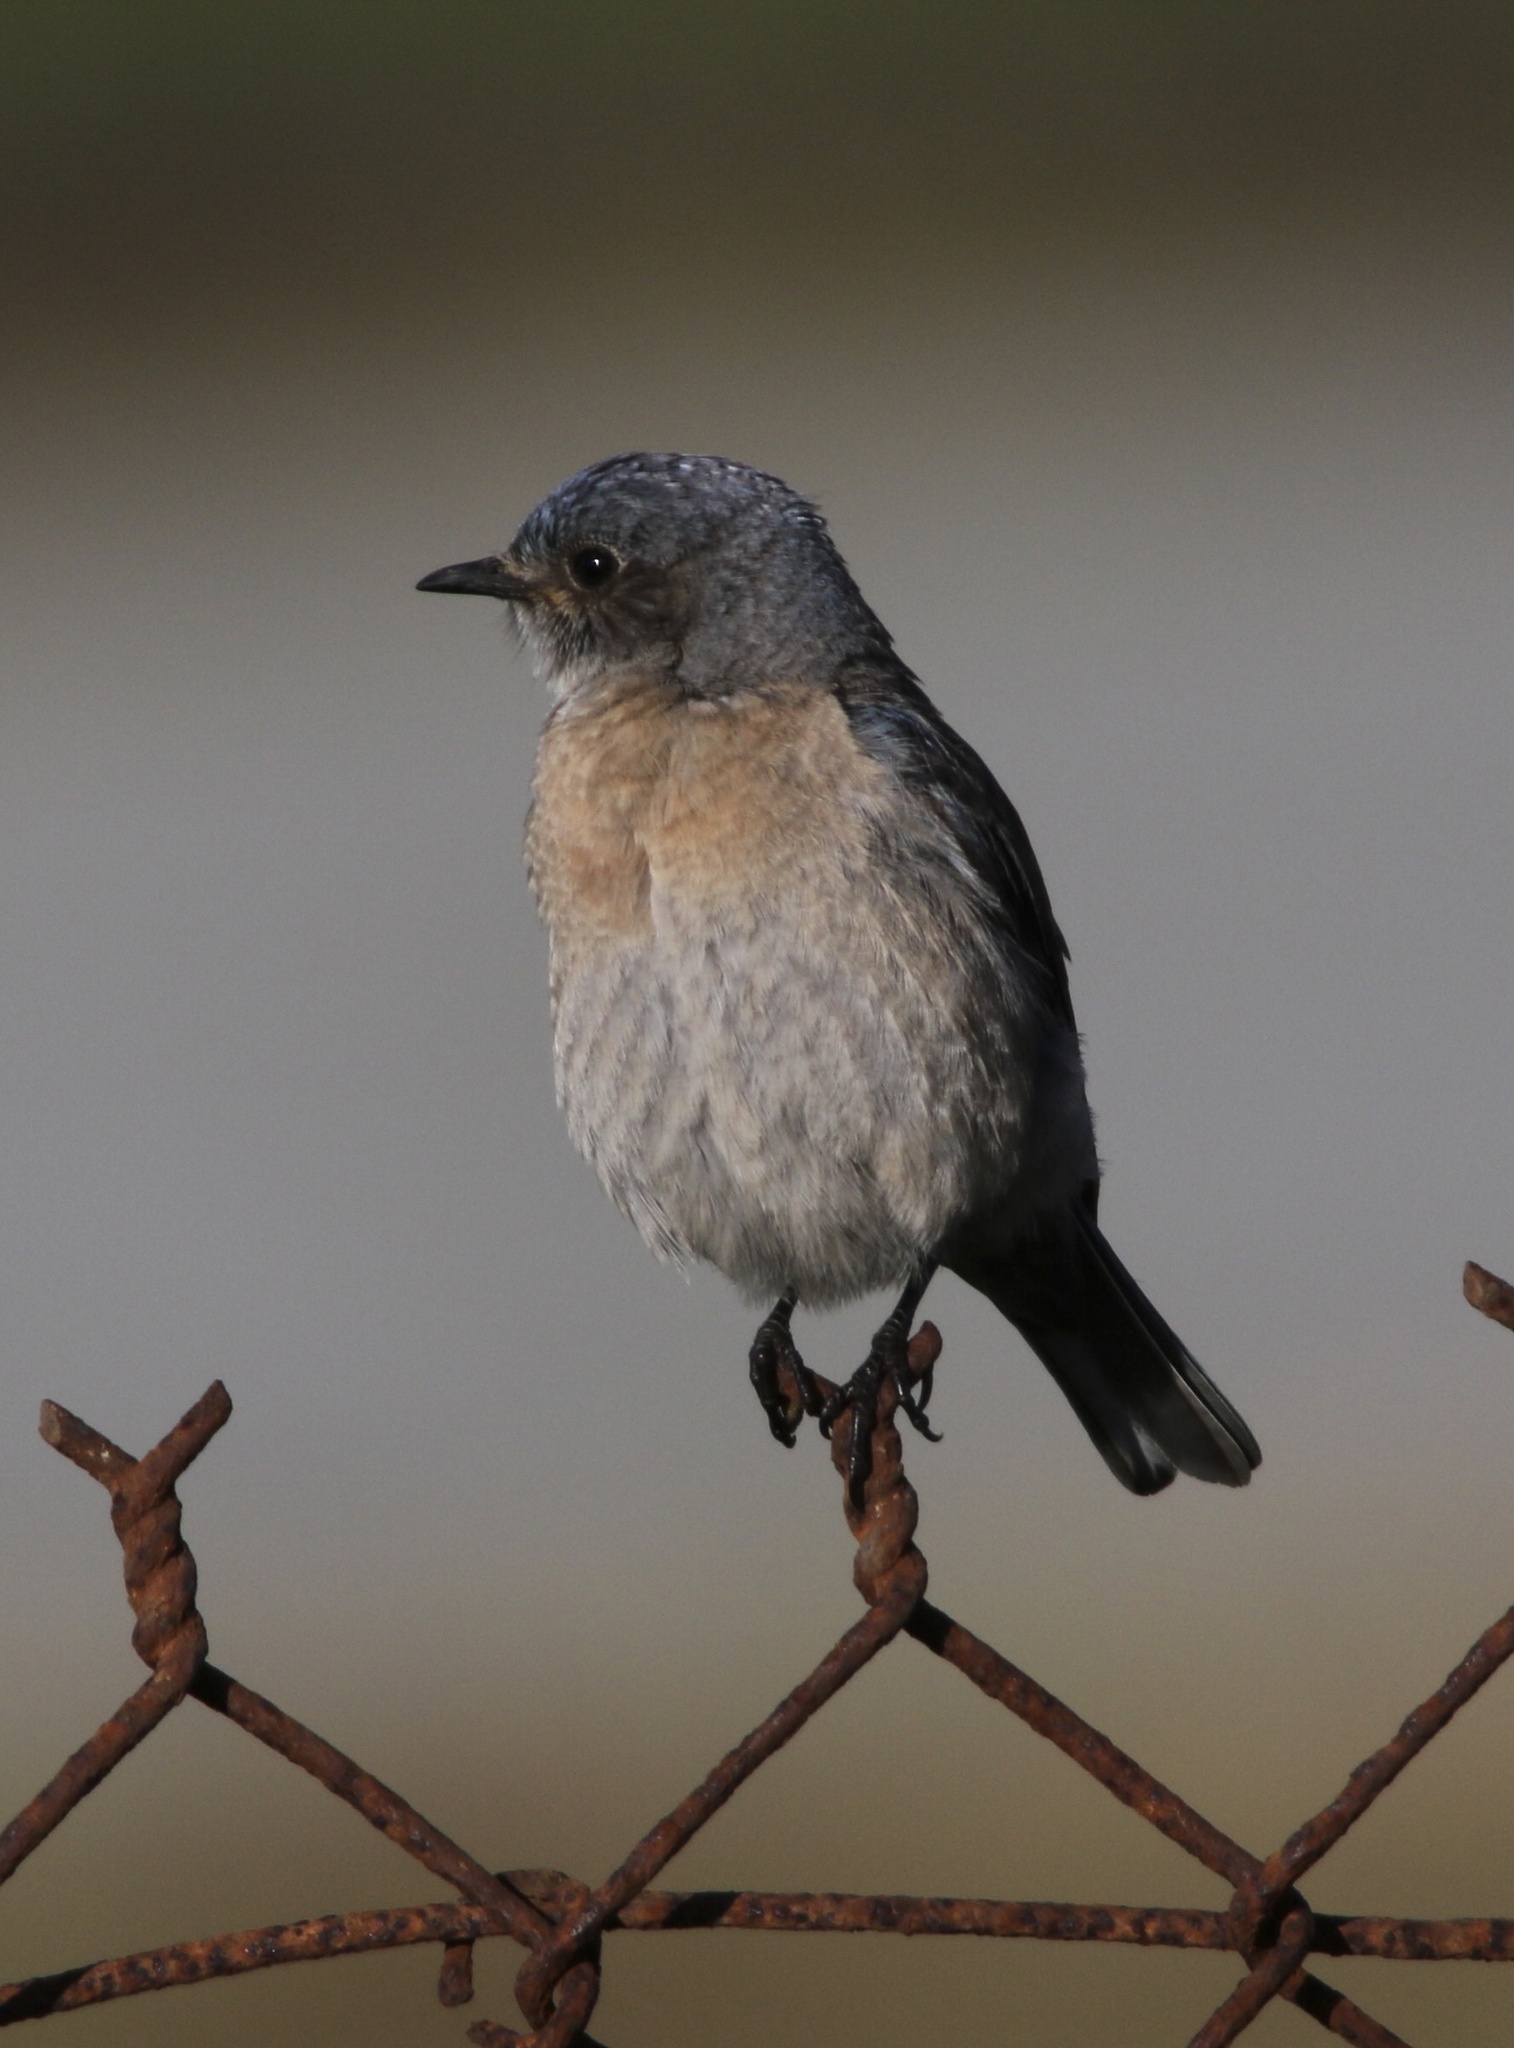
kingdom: Animalia
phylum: Chordata
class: Aves
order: Passeriformes
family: Turdidae
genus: Sialia
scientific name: Sialia mexicana
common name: Western bluebird
